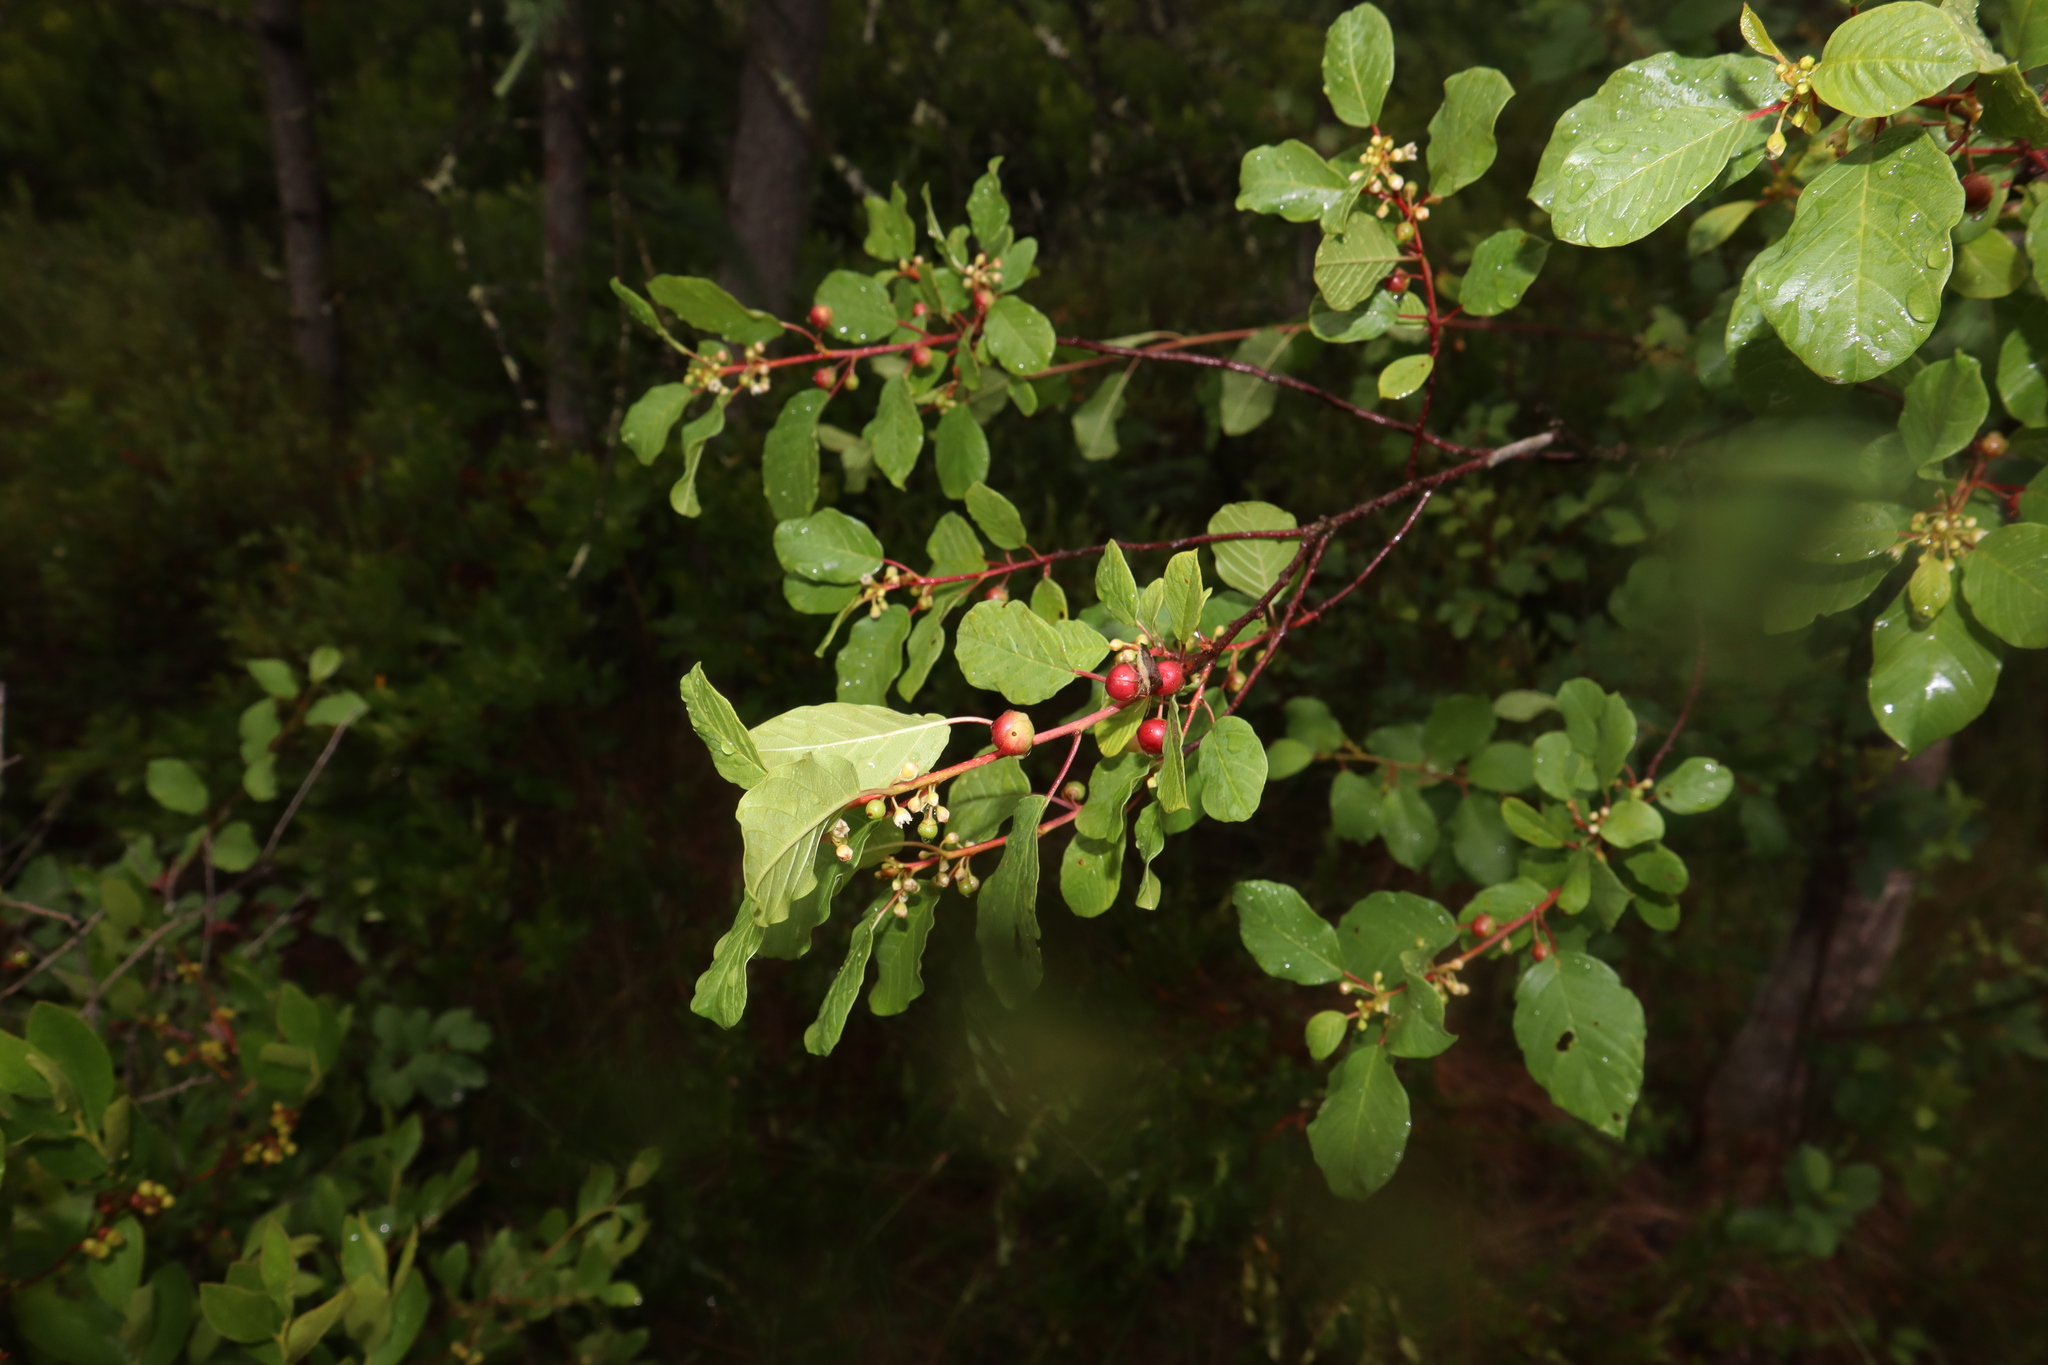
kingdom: Plantae
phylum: Tracheophyta
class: Magnoliopsida
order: Rosales
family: Rhamnaceae
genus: Frangula
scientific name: Frangula alnus
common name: Alder buckthorn
